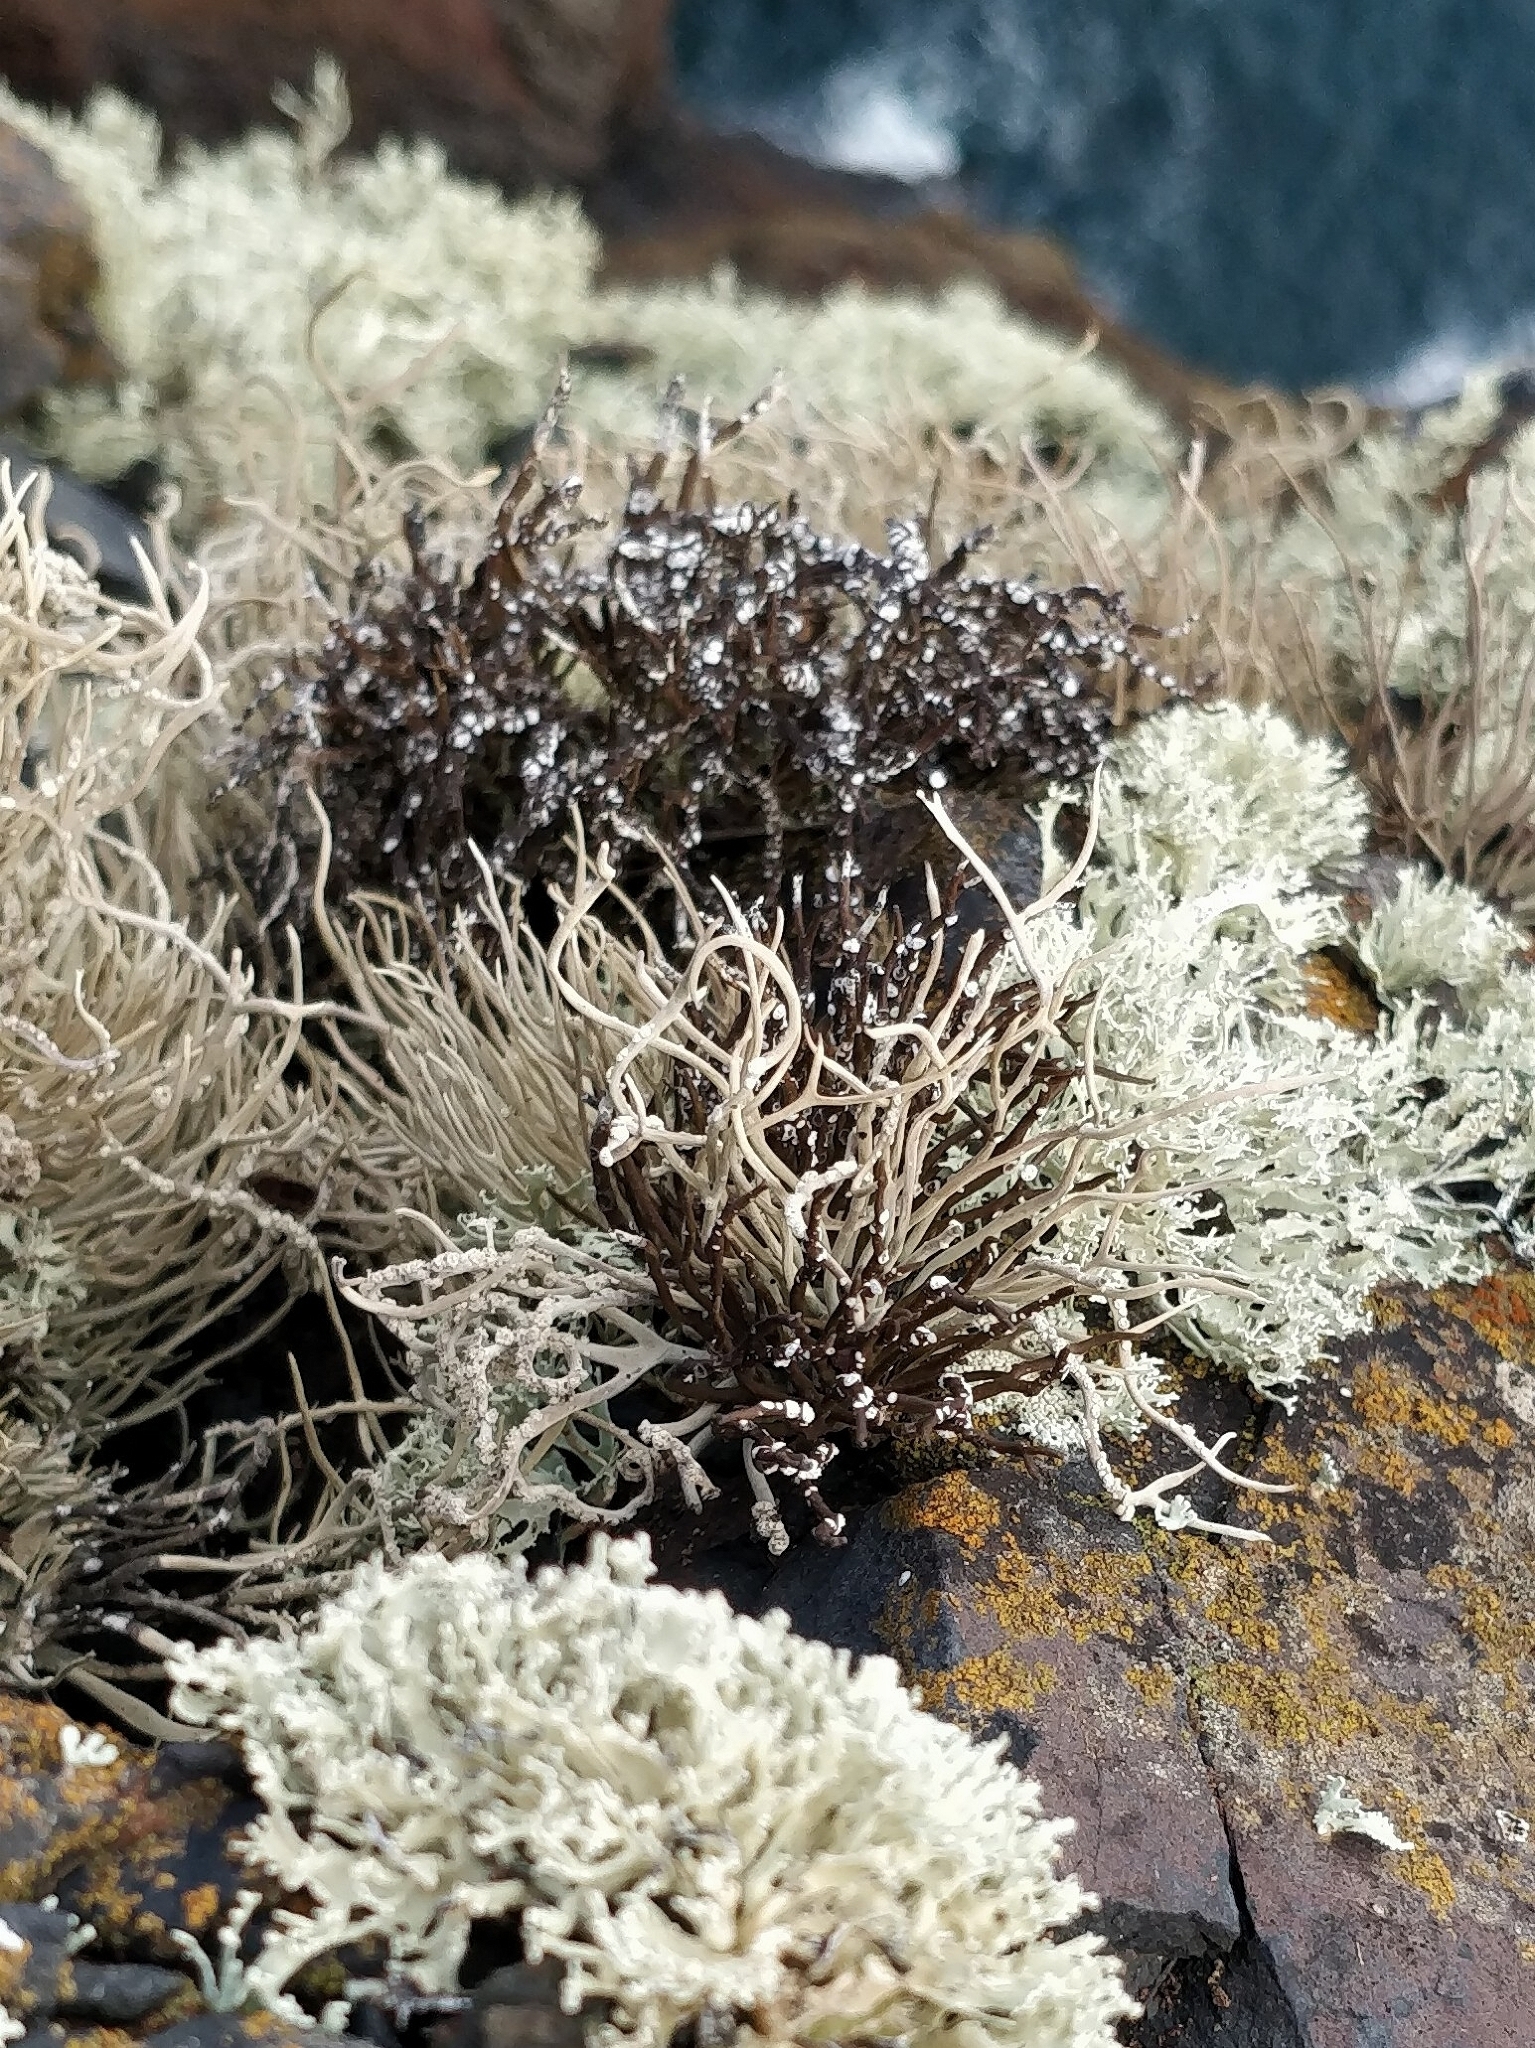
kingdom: Fungi
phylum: Ascomycota
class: Arthoniomycetes
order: Arthoniales
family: Roccellaceae
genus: Roccella
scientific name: Roccella phycopsis
